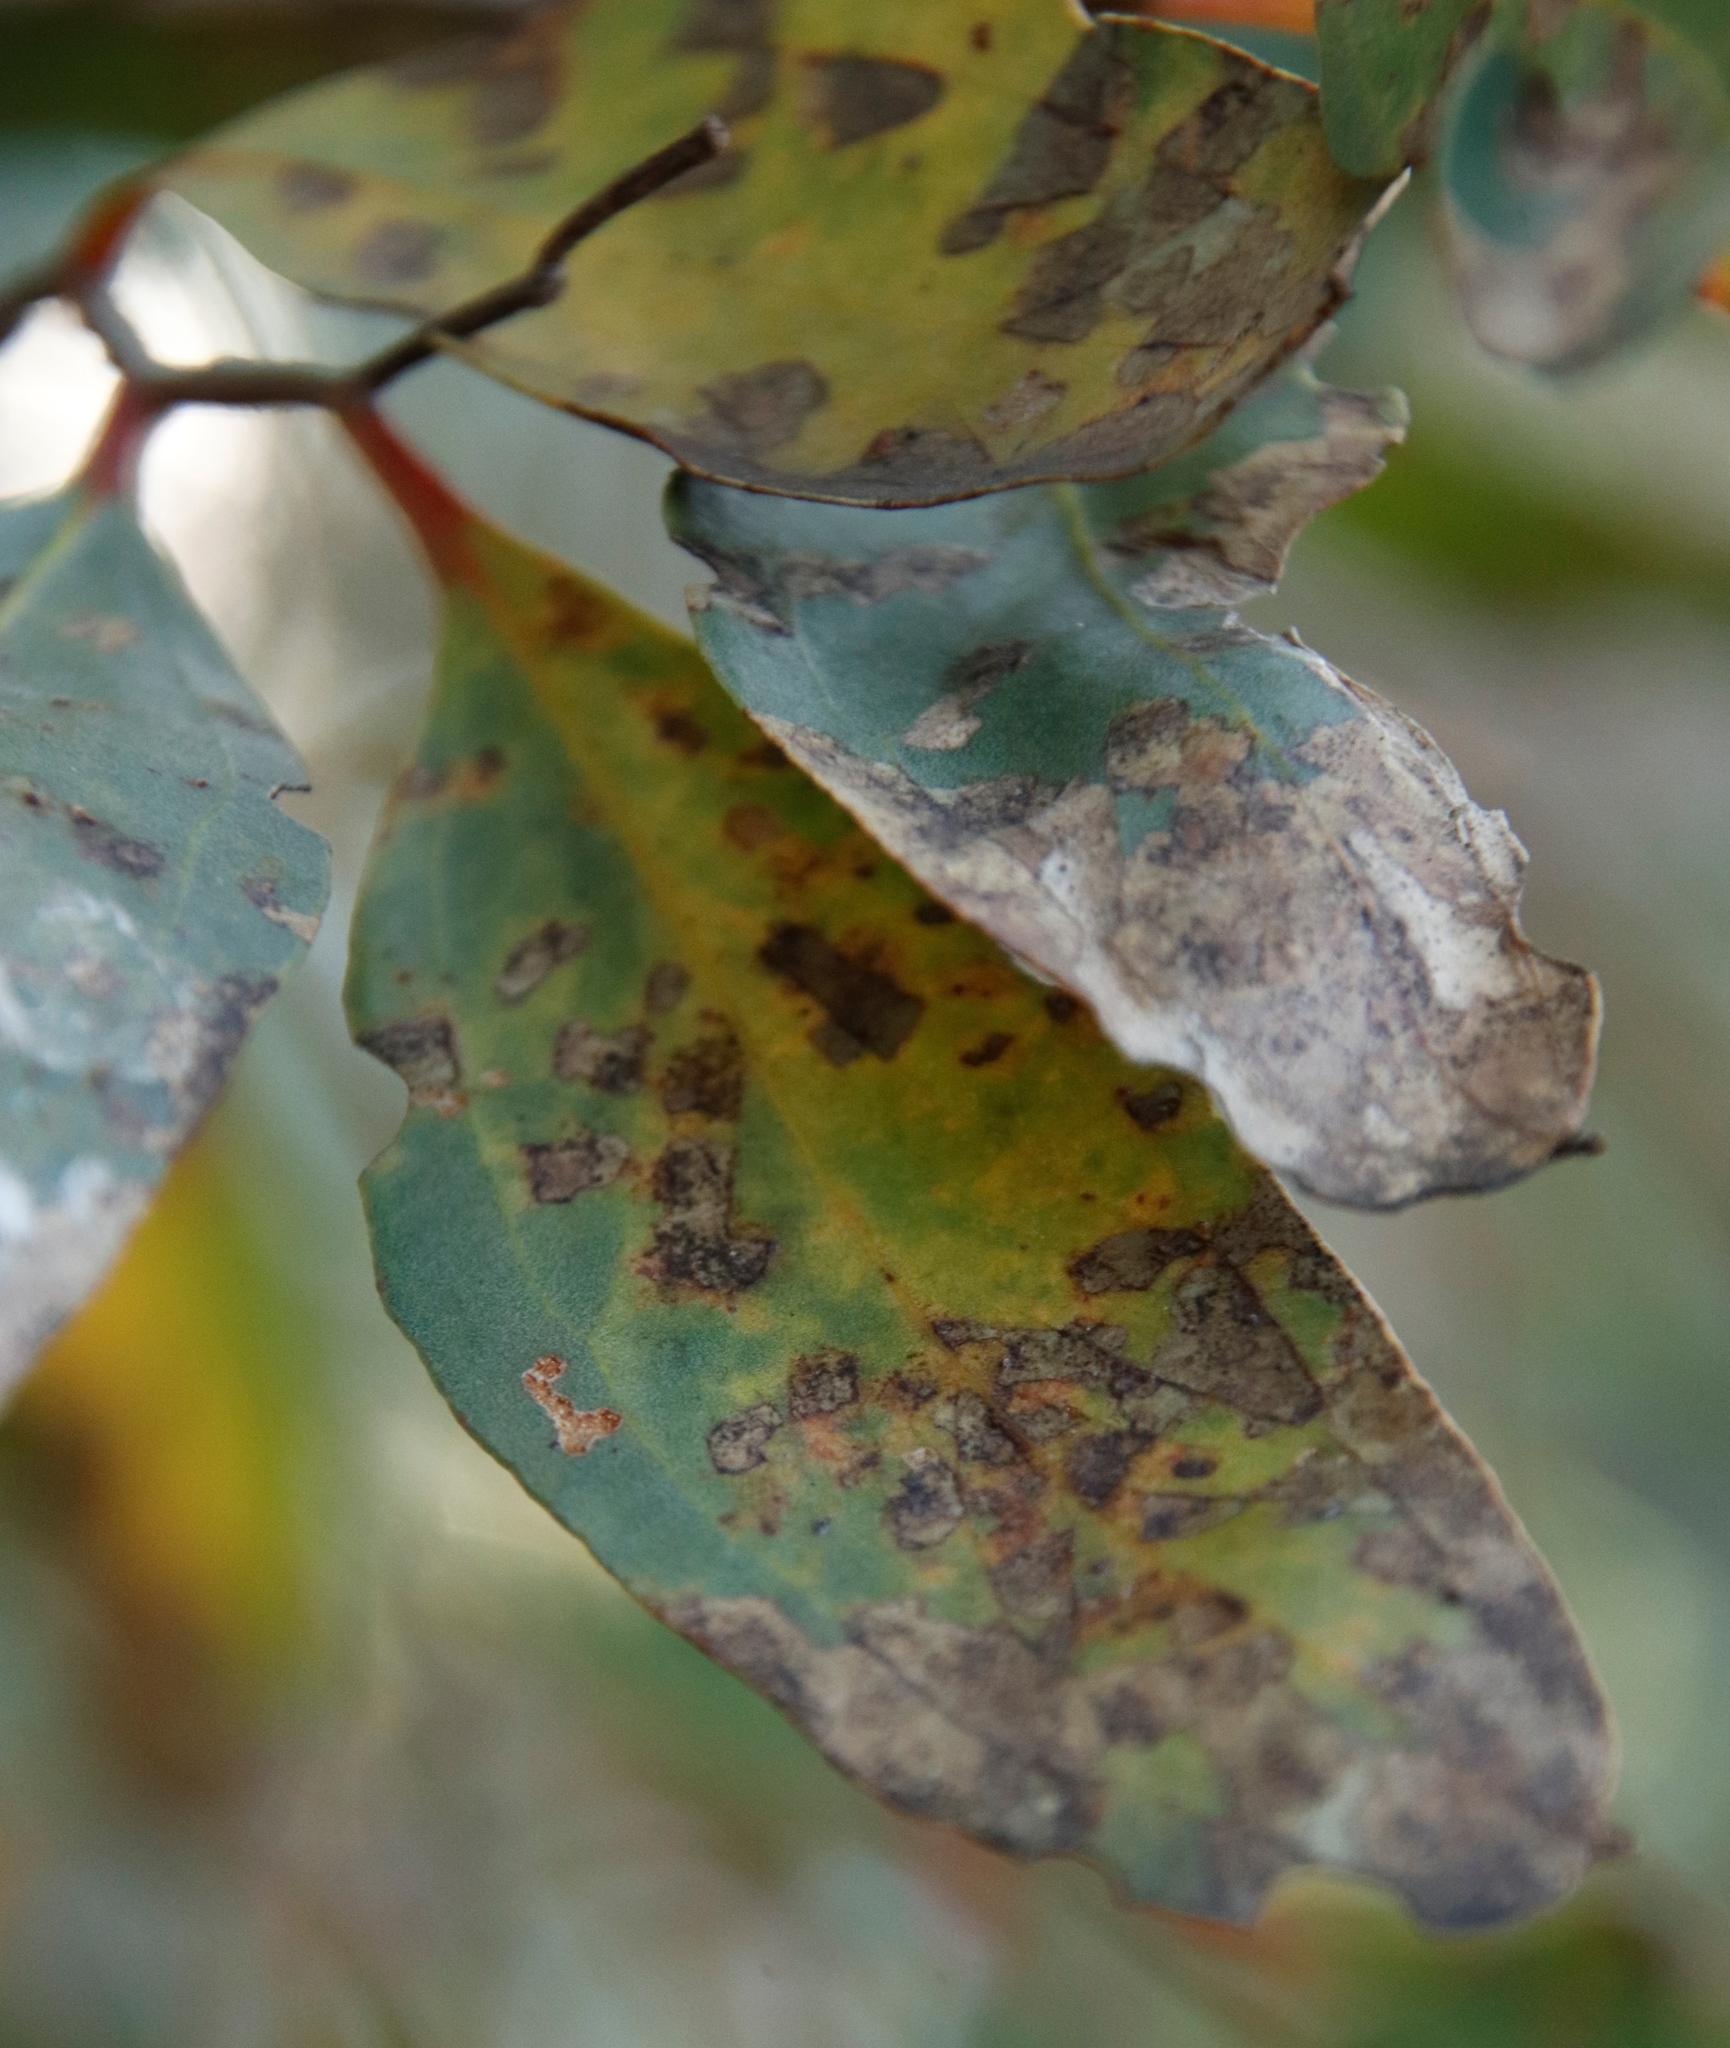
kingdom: Plantae
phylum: Tracheophyta
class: Magnoliopsida
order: Myrtales
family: Myrtaceae
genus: Eucalyptus
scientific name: Eucalyptus conferruminata
